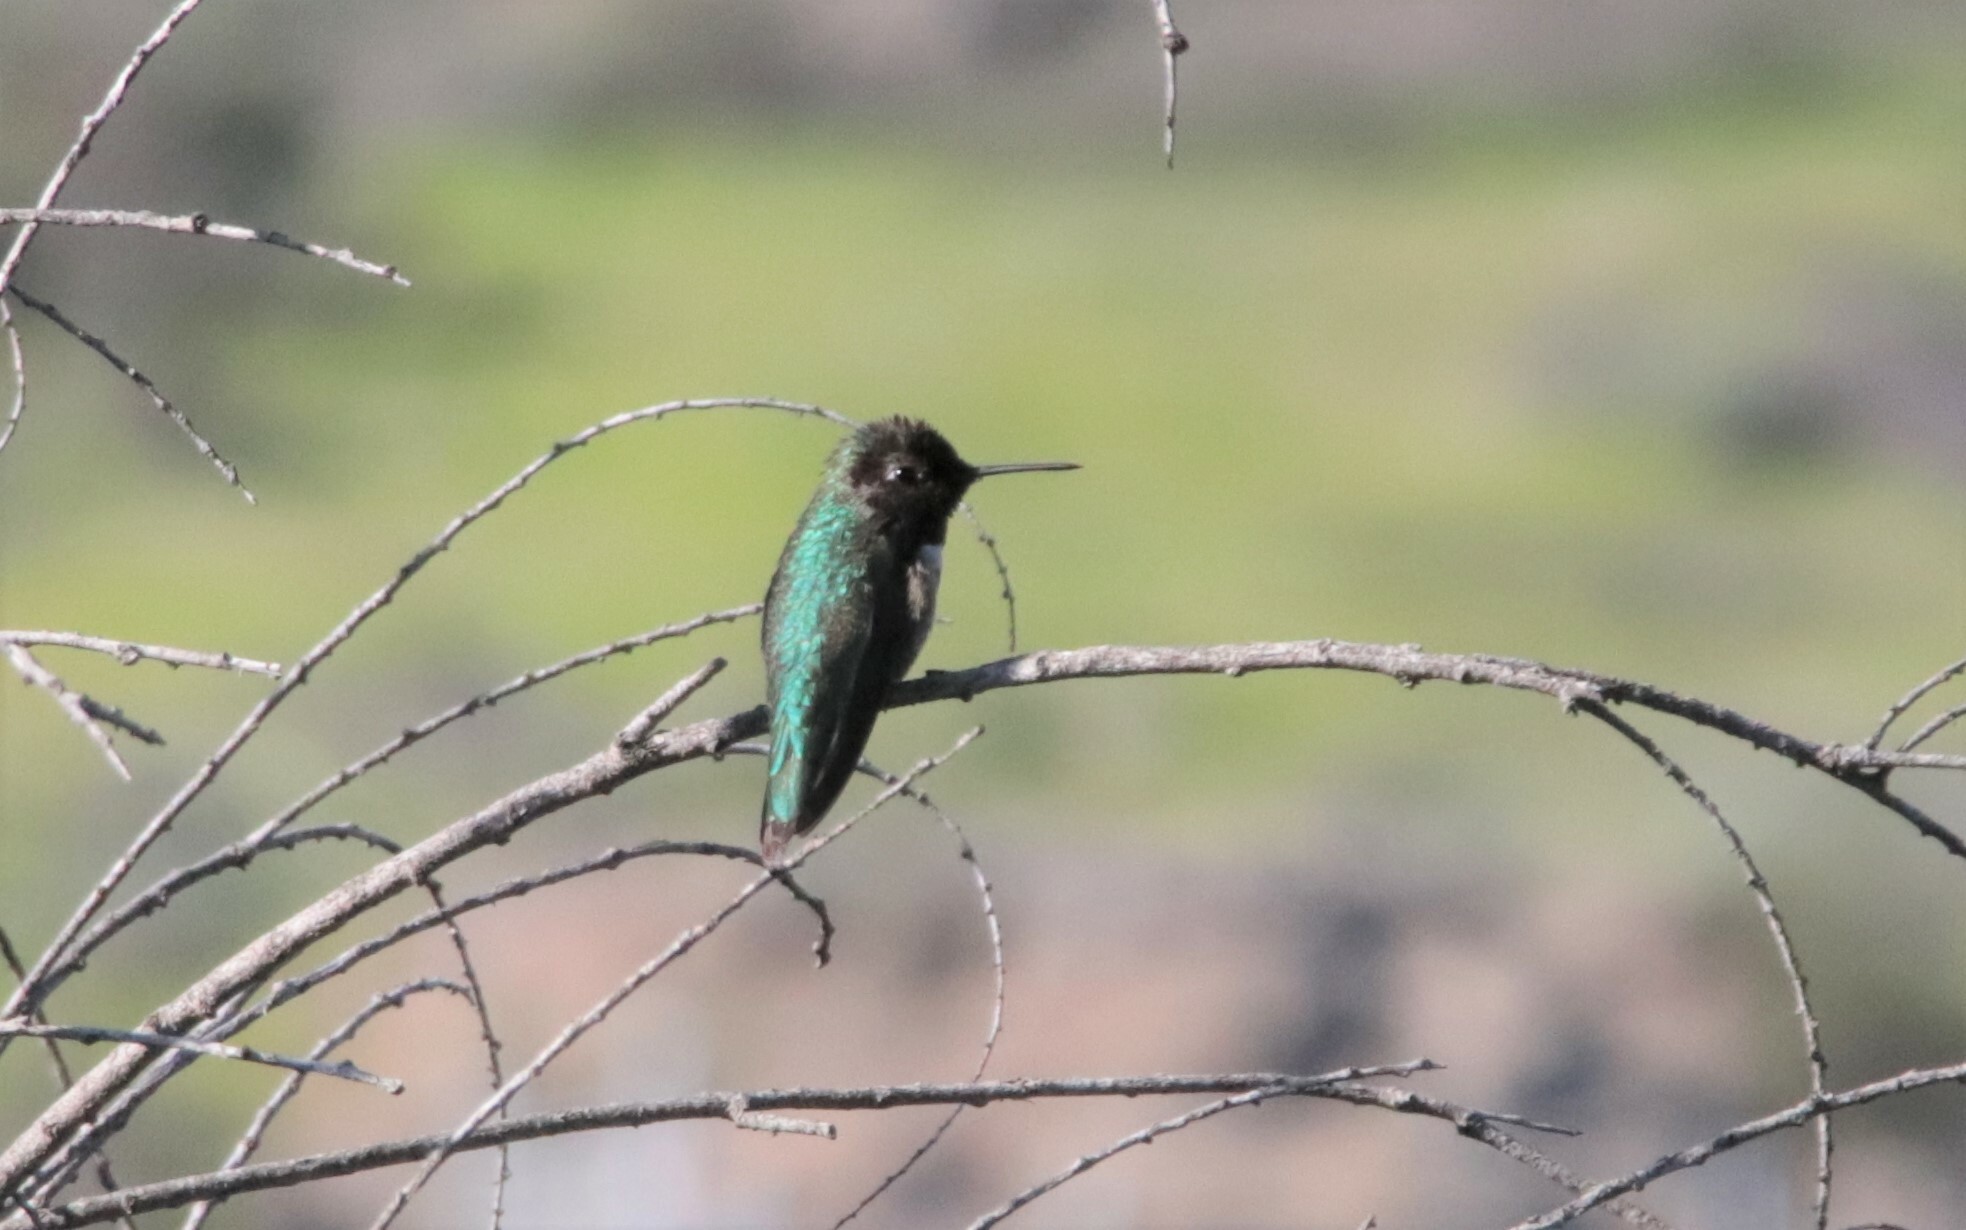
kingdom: Animalia
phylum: Chordata
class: Aves
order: Apodiformes
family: Trochilidae
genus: Calypte
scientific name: Calypte anna
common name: Anna's hummingbird
